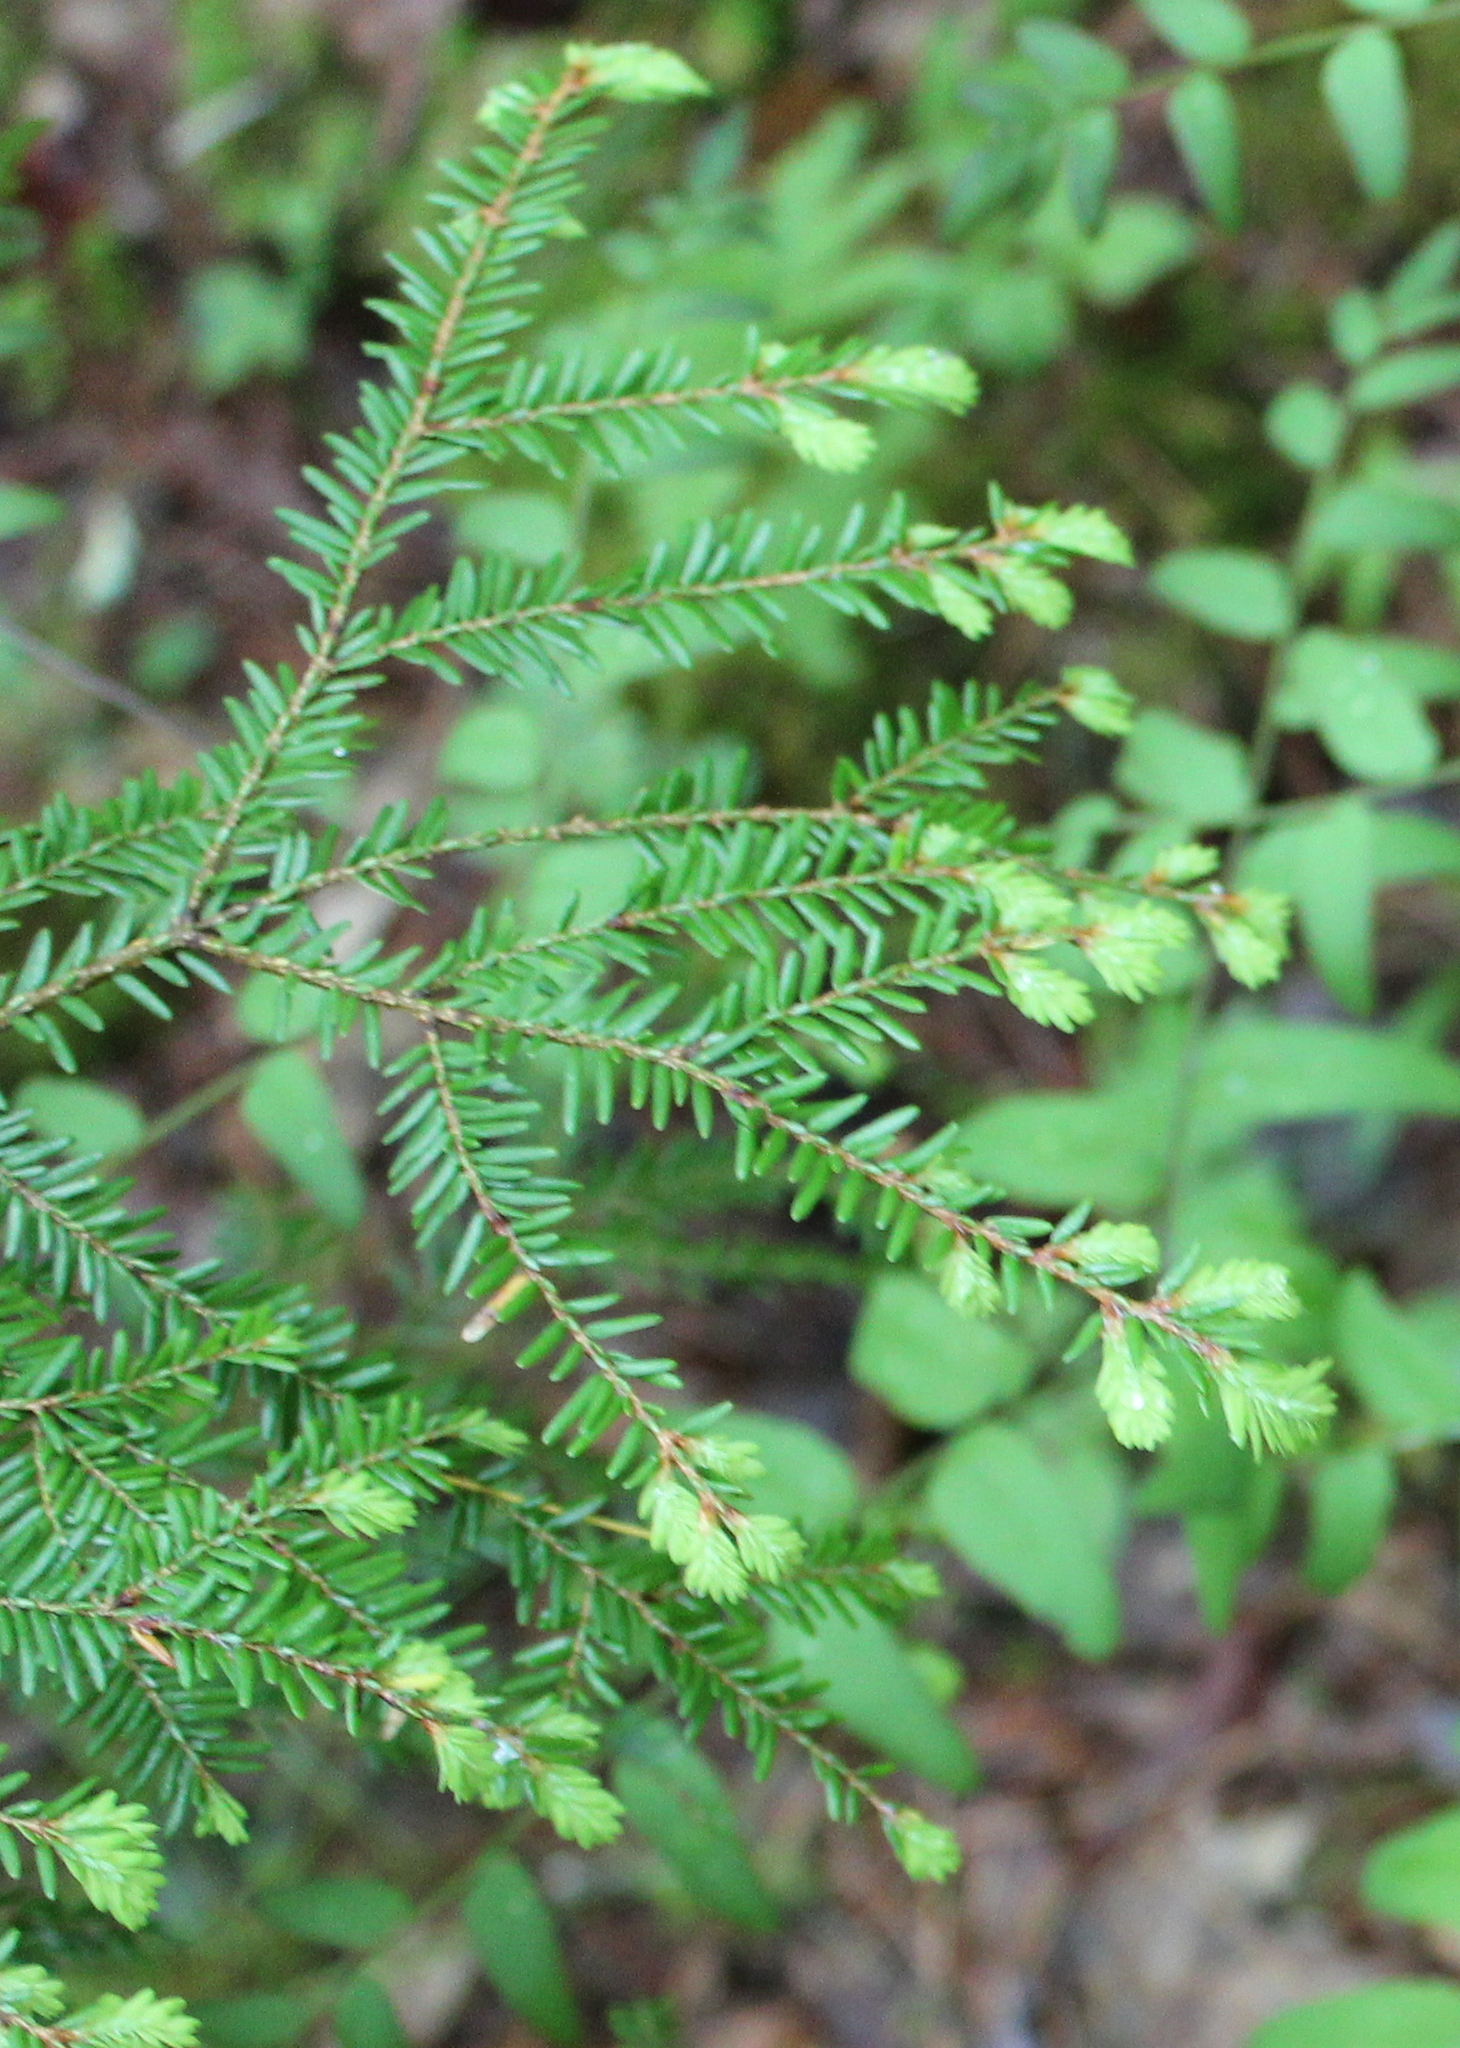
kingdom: Plantae
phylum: Tracheophyta
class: Pinopsida
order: Pinales
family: Pinaceae
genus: Tsuga
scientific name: Tsuga canadensis
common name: Eastern hemlock
